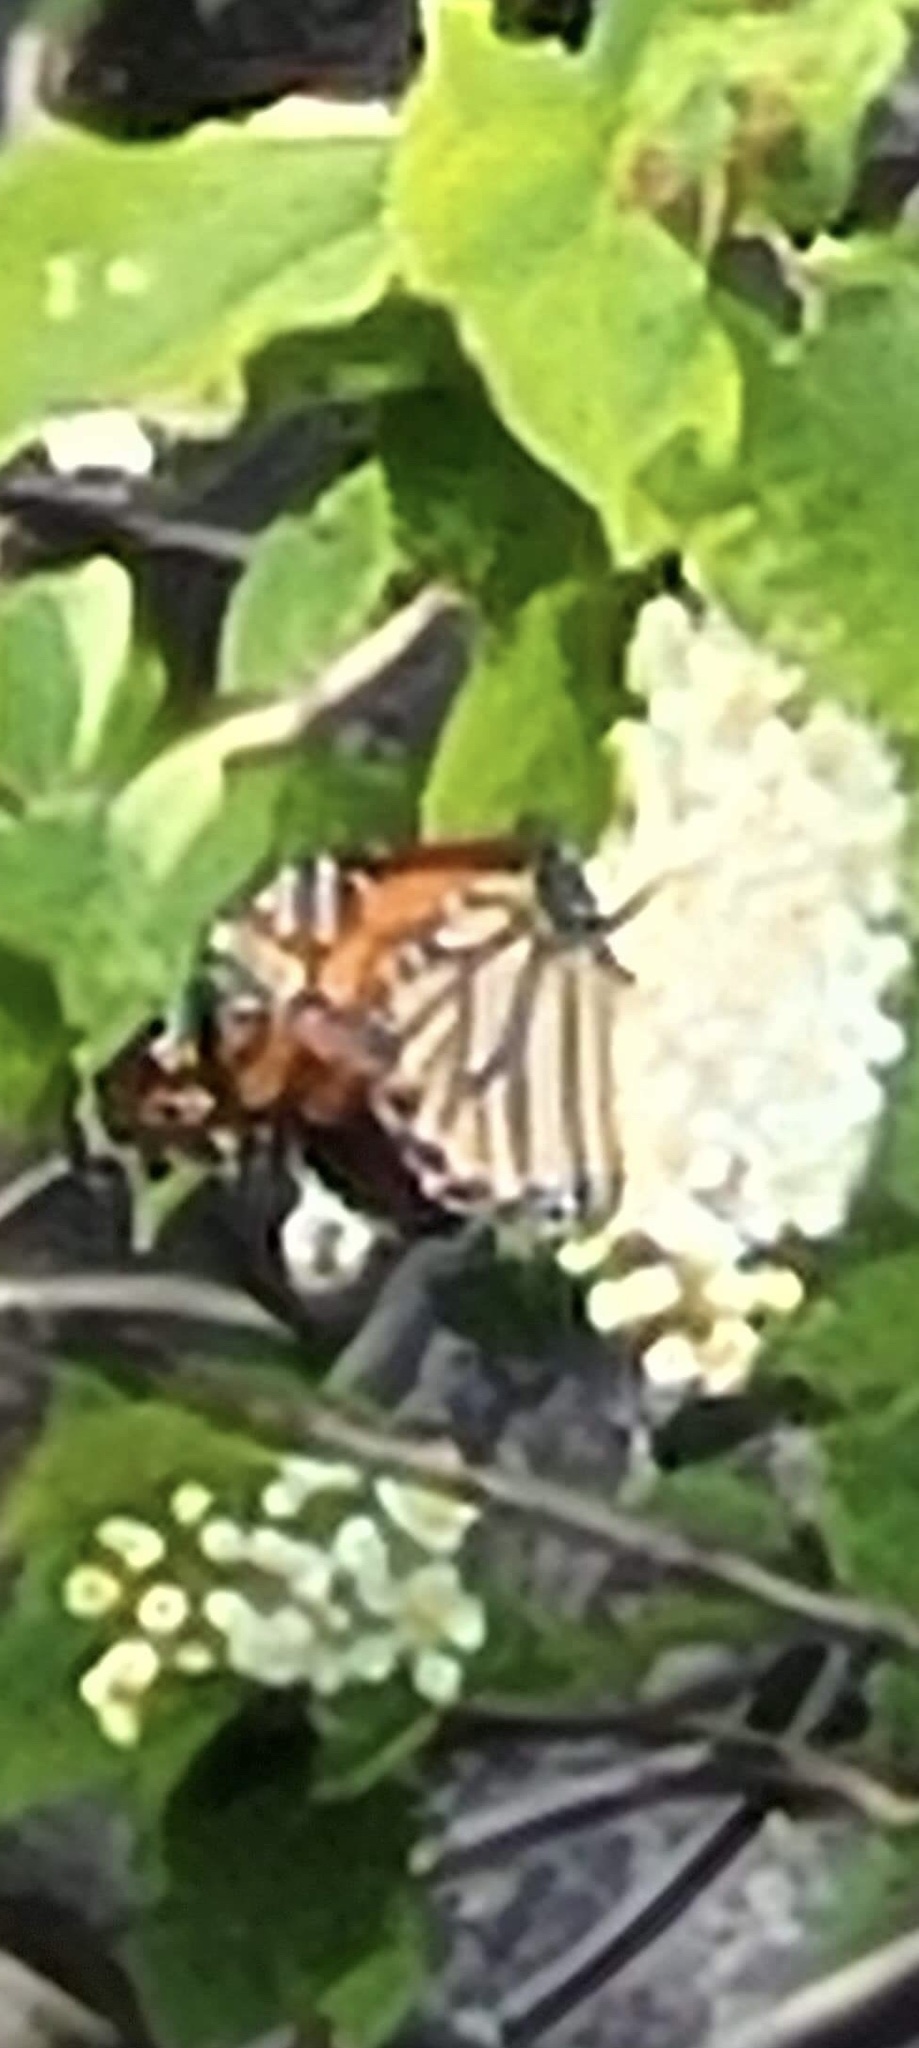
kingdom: Animalia
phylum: Arthropoda
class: Insecta
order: Lepidoptera
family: Nymphalidae
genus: Danaus
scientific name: Danaus plexippus
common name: Monarch
